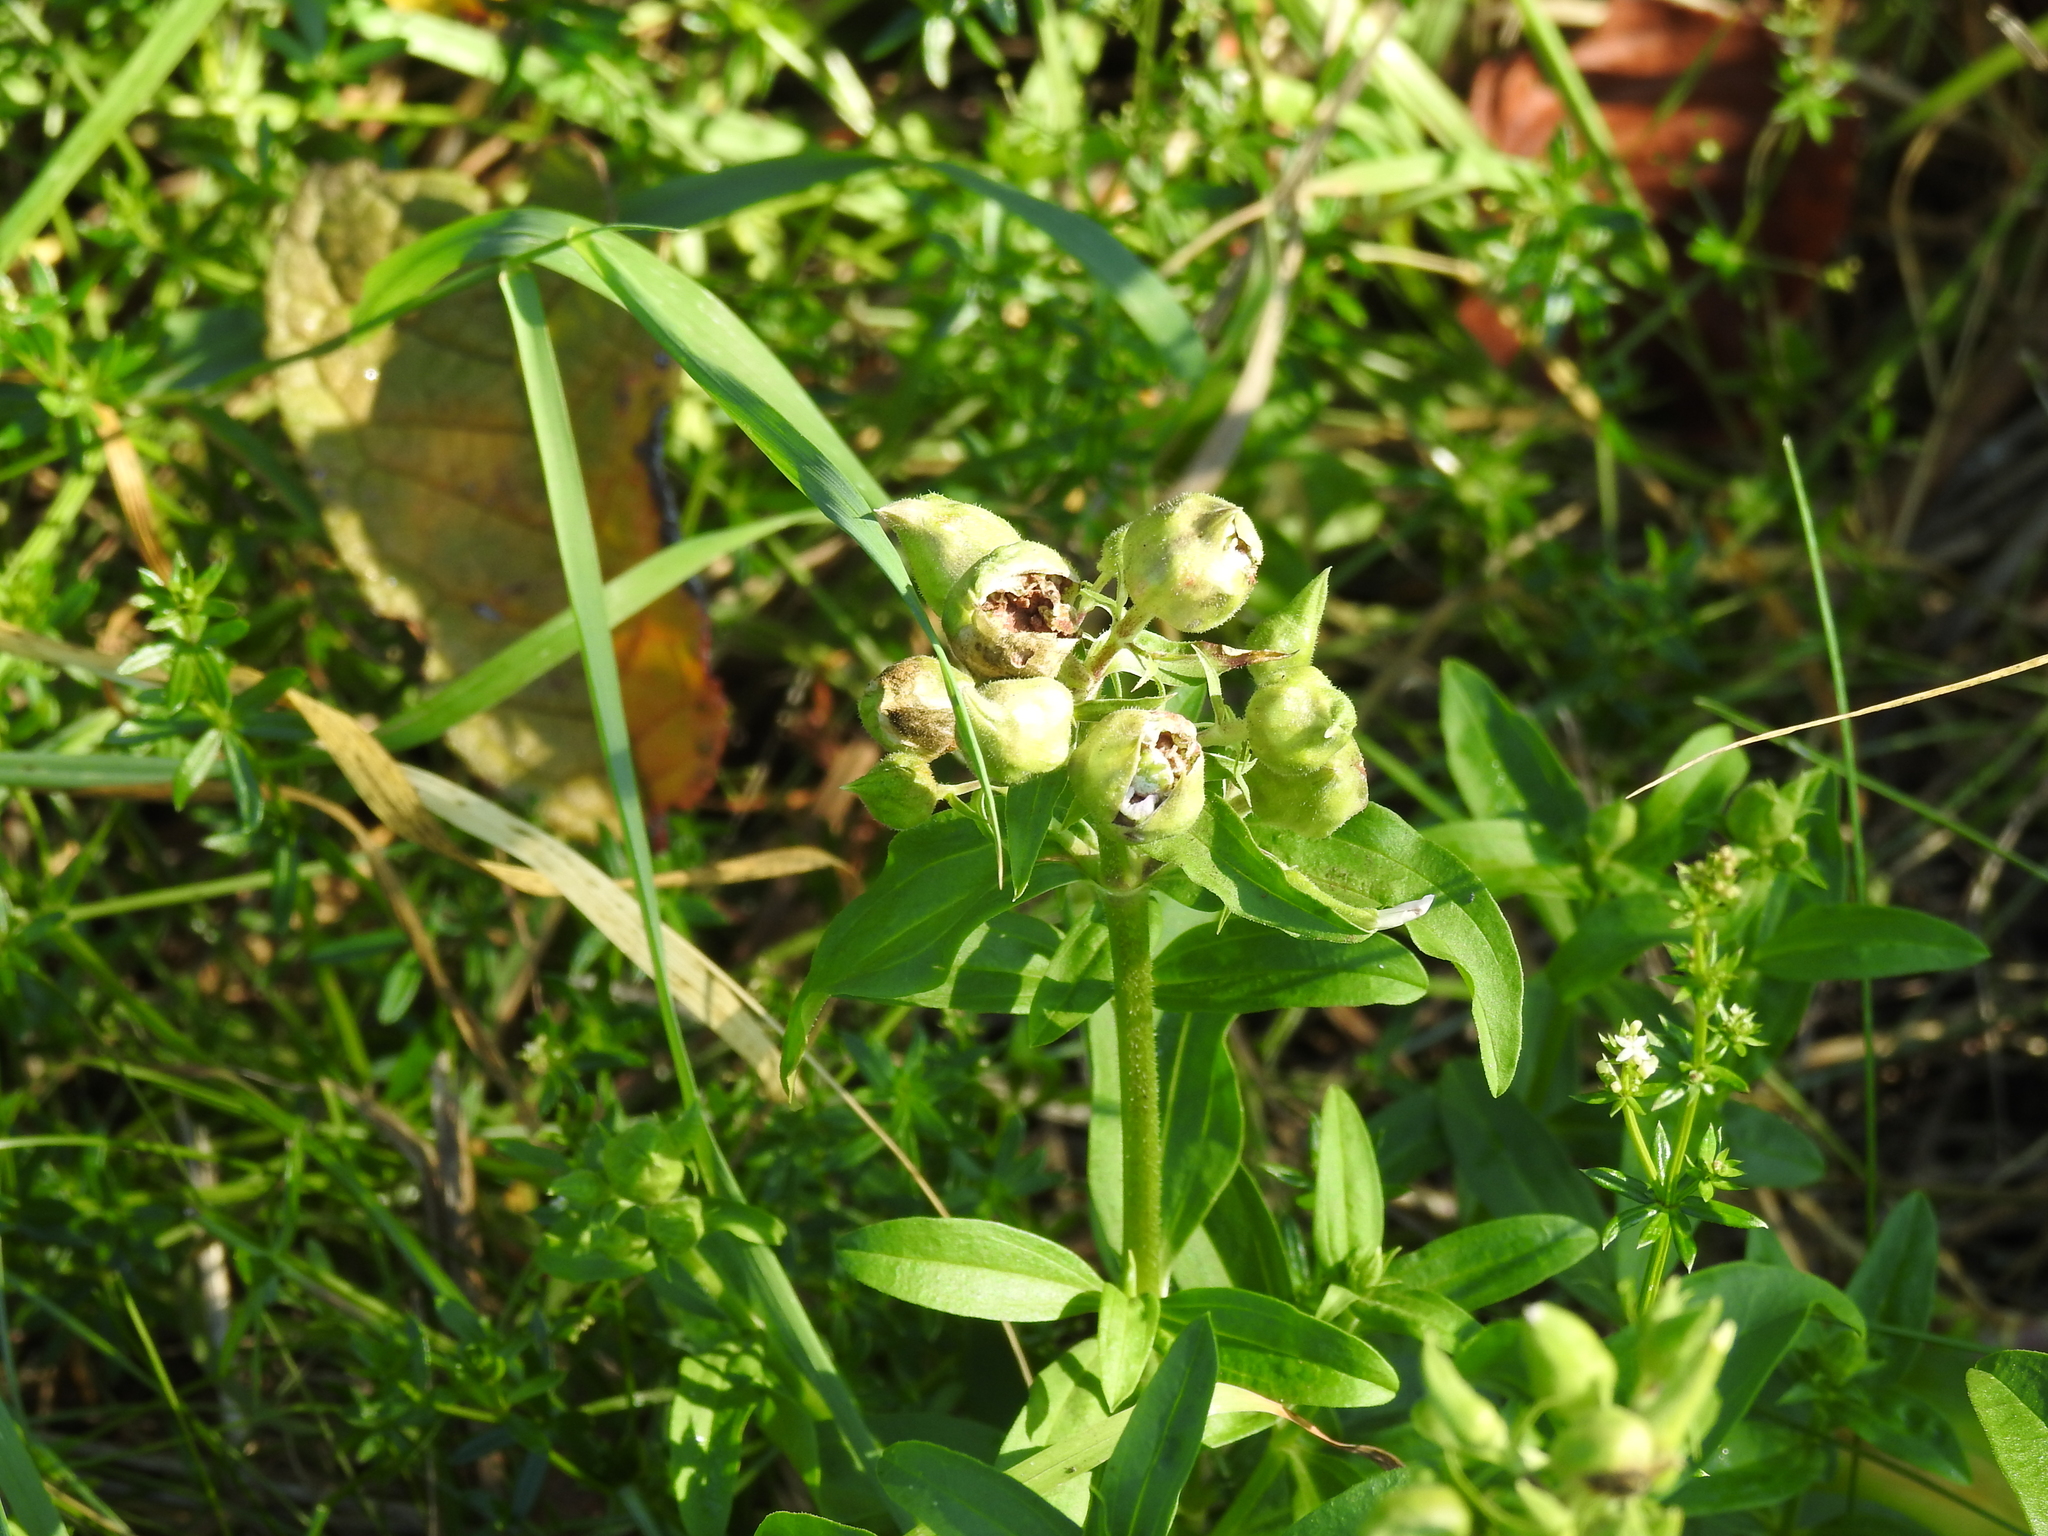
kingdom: Fungi
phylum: Basidiomycota
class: Ustilaginomycetes
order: Urocystidales
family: Glomosporiaceae
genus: Thecaphora
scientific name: Thecaphora saponariae
